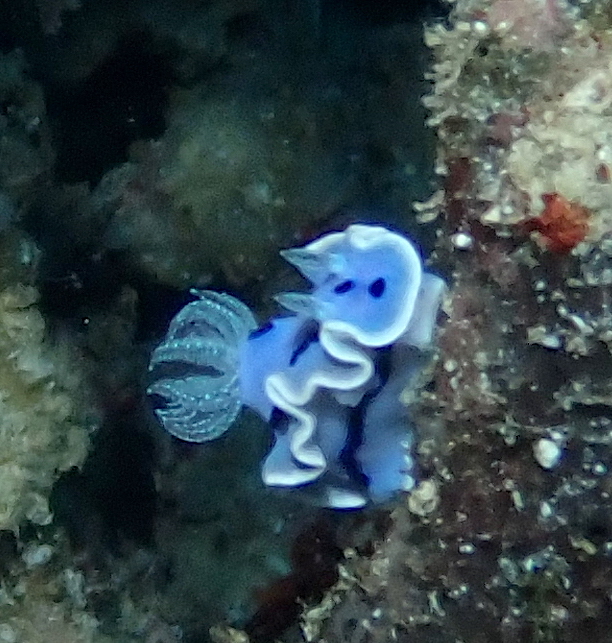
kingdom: Animalia
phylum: Mollusca
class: Gastropoda
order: Nudibranchia
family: Chromodorididae
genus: Chromodoris
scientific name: Chromodoris willani
